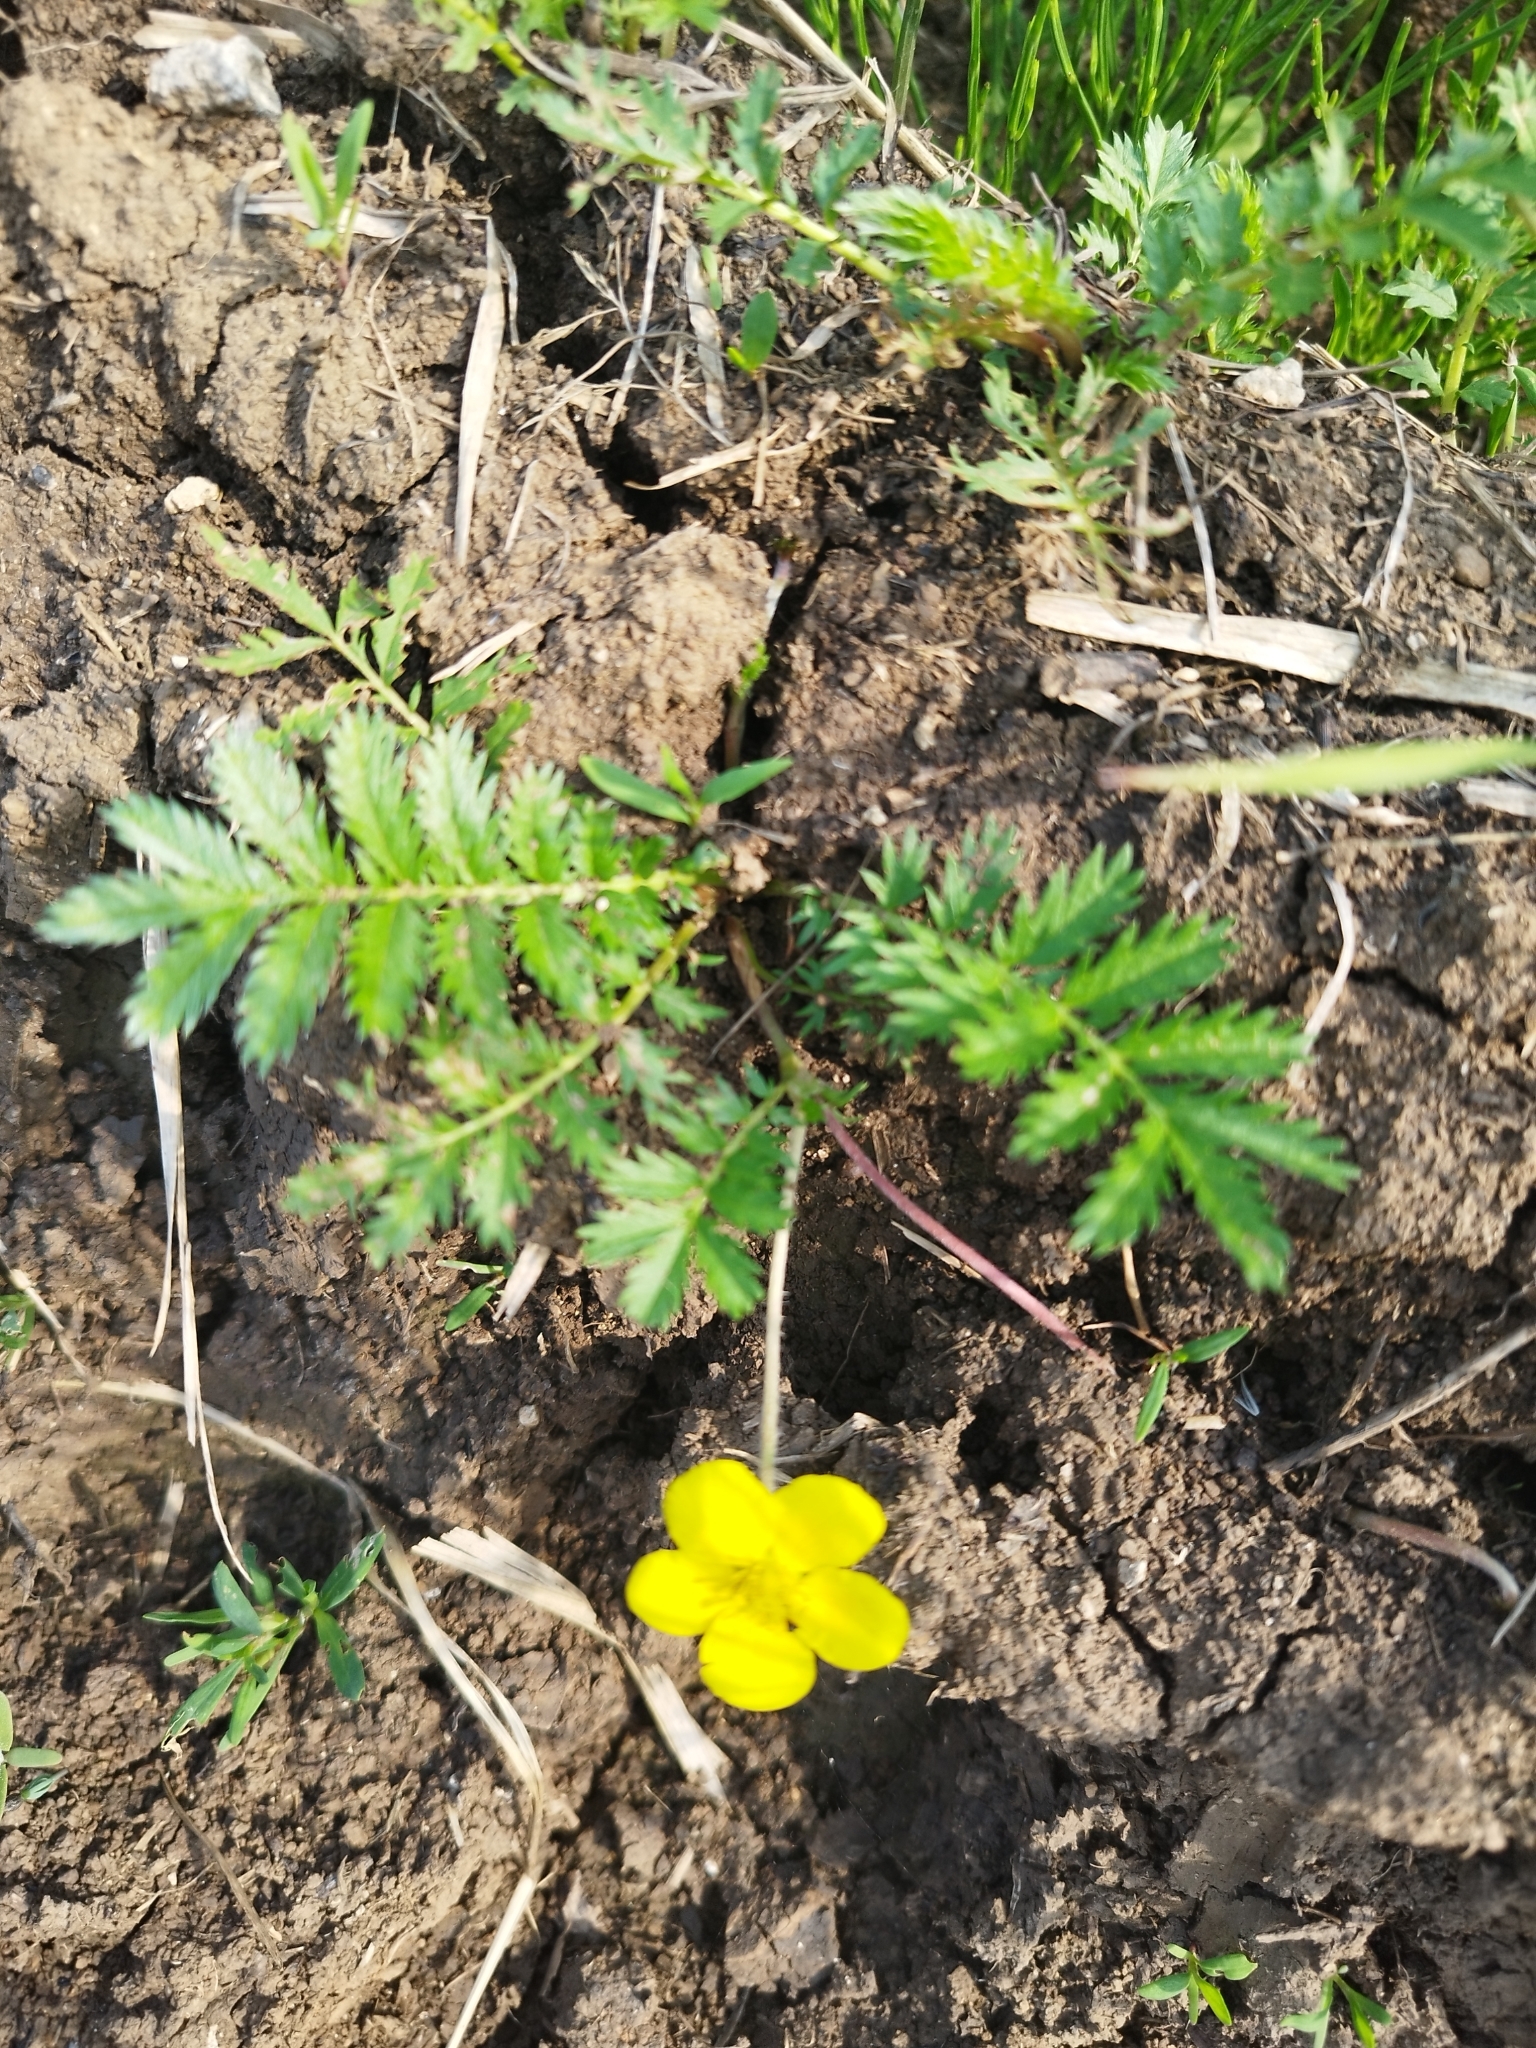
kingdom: Plantae
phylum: Tracheophyta
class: Magnoliopsida
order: Rosales
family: Rosaceae
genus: Argentina
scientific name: Argentina anserina
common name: Common silverweed
